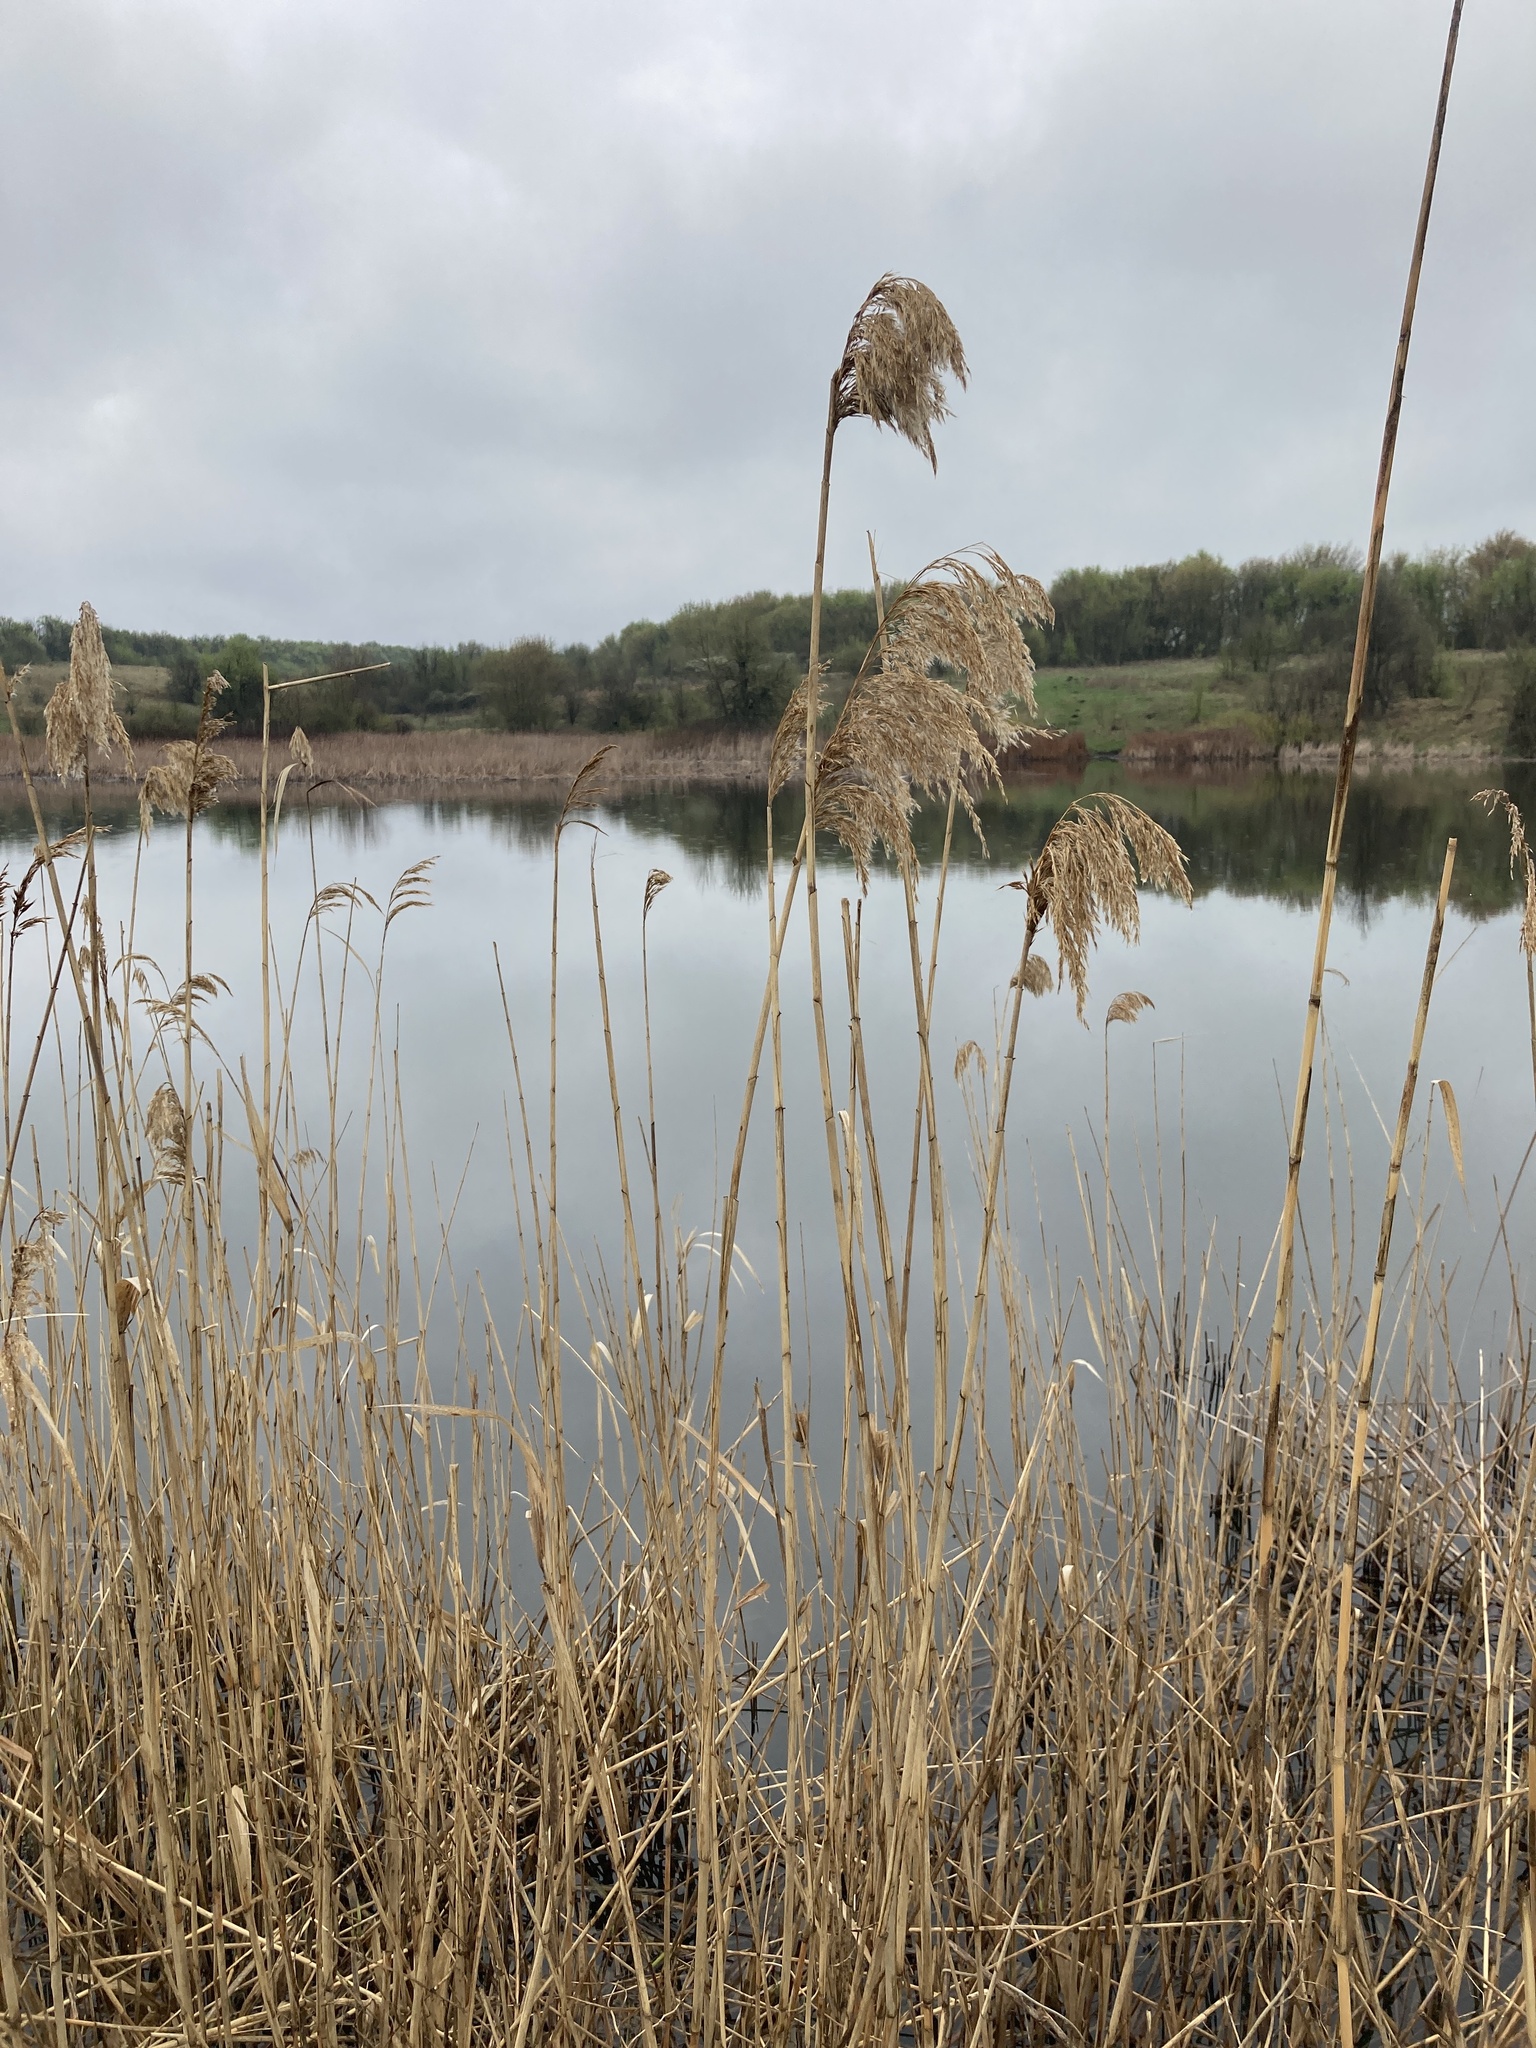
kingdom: Plantae
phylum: Tracheophyta
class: Liliopsida
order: Poales
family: Poaceae
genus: Phragmites
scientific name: Phragmites australis
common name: Common reed
